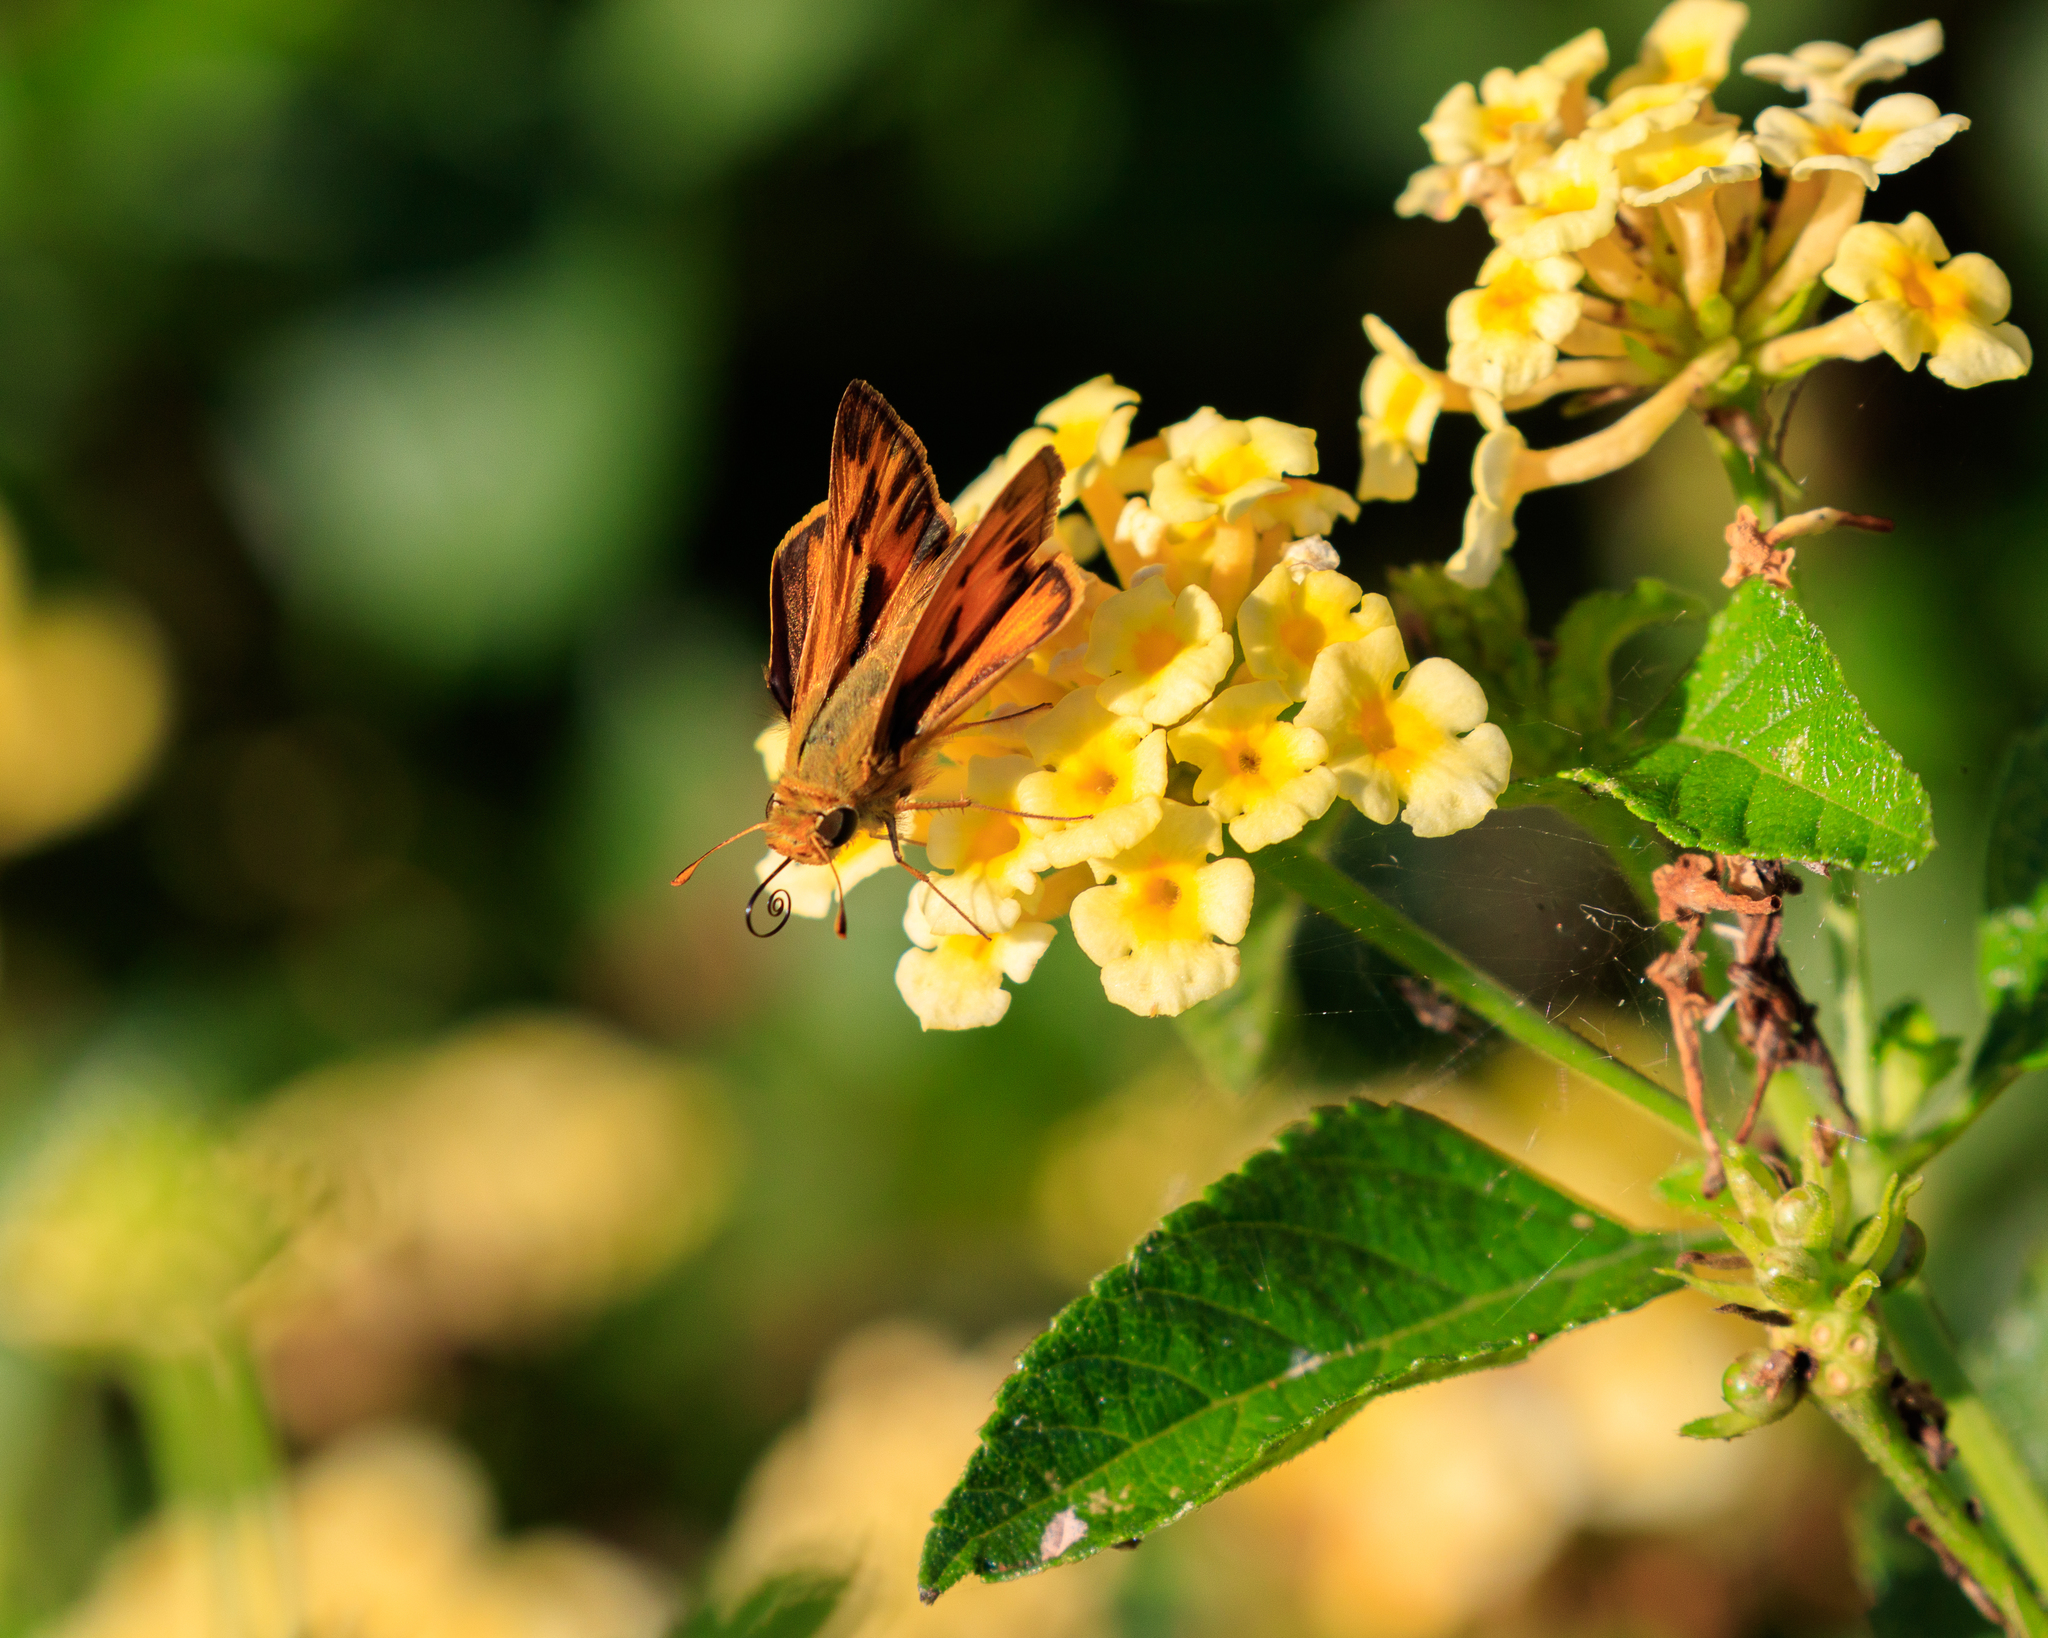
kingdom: Animalia
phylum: Arthropoda
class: Insecta
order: Lepidoptera
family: Hesperiidae
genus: Hylephila
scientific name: Hylephila phyleus
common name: Fiery skipper
